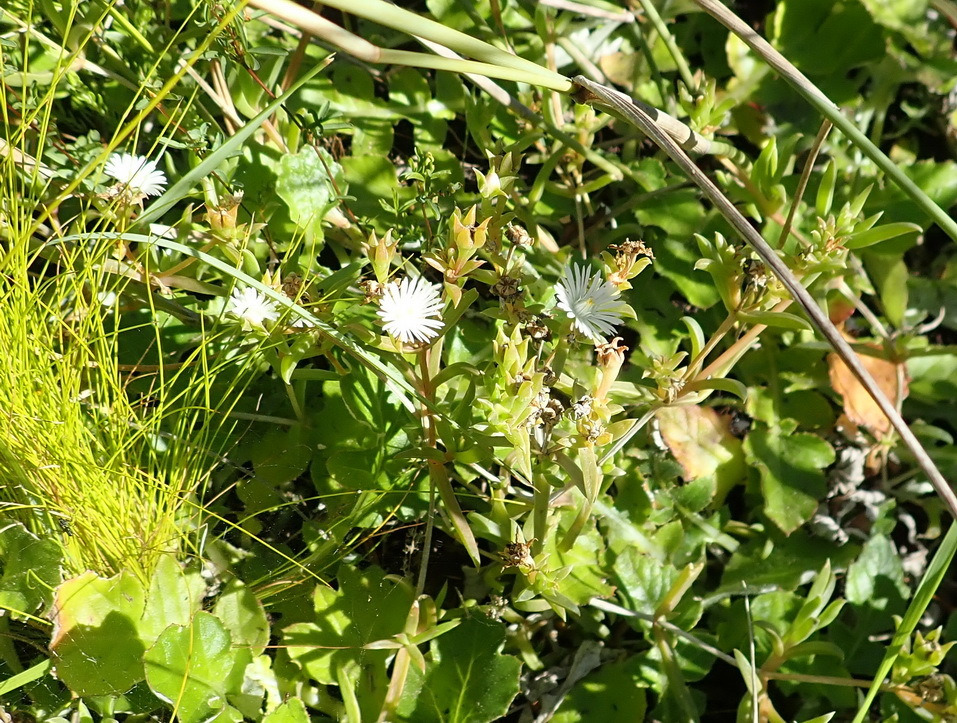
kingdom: Plantae
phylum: Tracheophyta
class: Magnoliopsida
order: Caryophyllales
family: Aizoaceae
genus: Delosperma
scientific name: Delosperma inconspicuum
